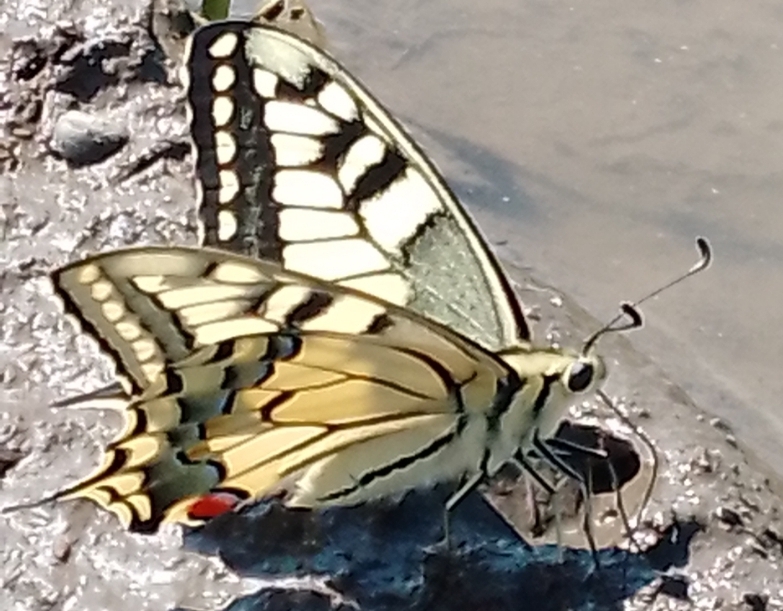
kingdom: Animalia
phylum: Arthropoda
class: Insecta
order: Lepidoptera
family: Papilionidae
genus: Papilio
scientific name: Papilio machaon
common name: Swallowtail
